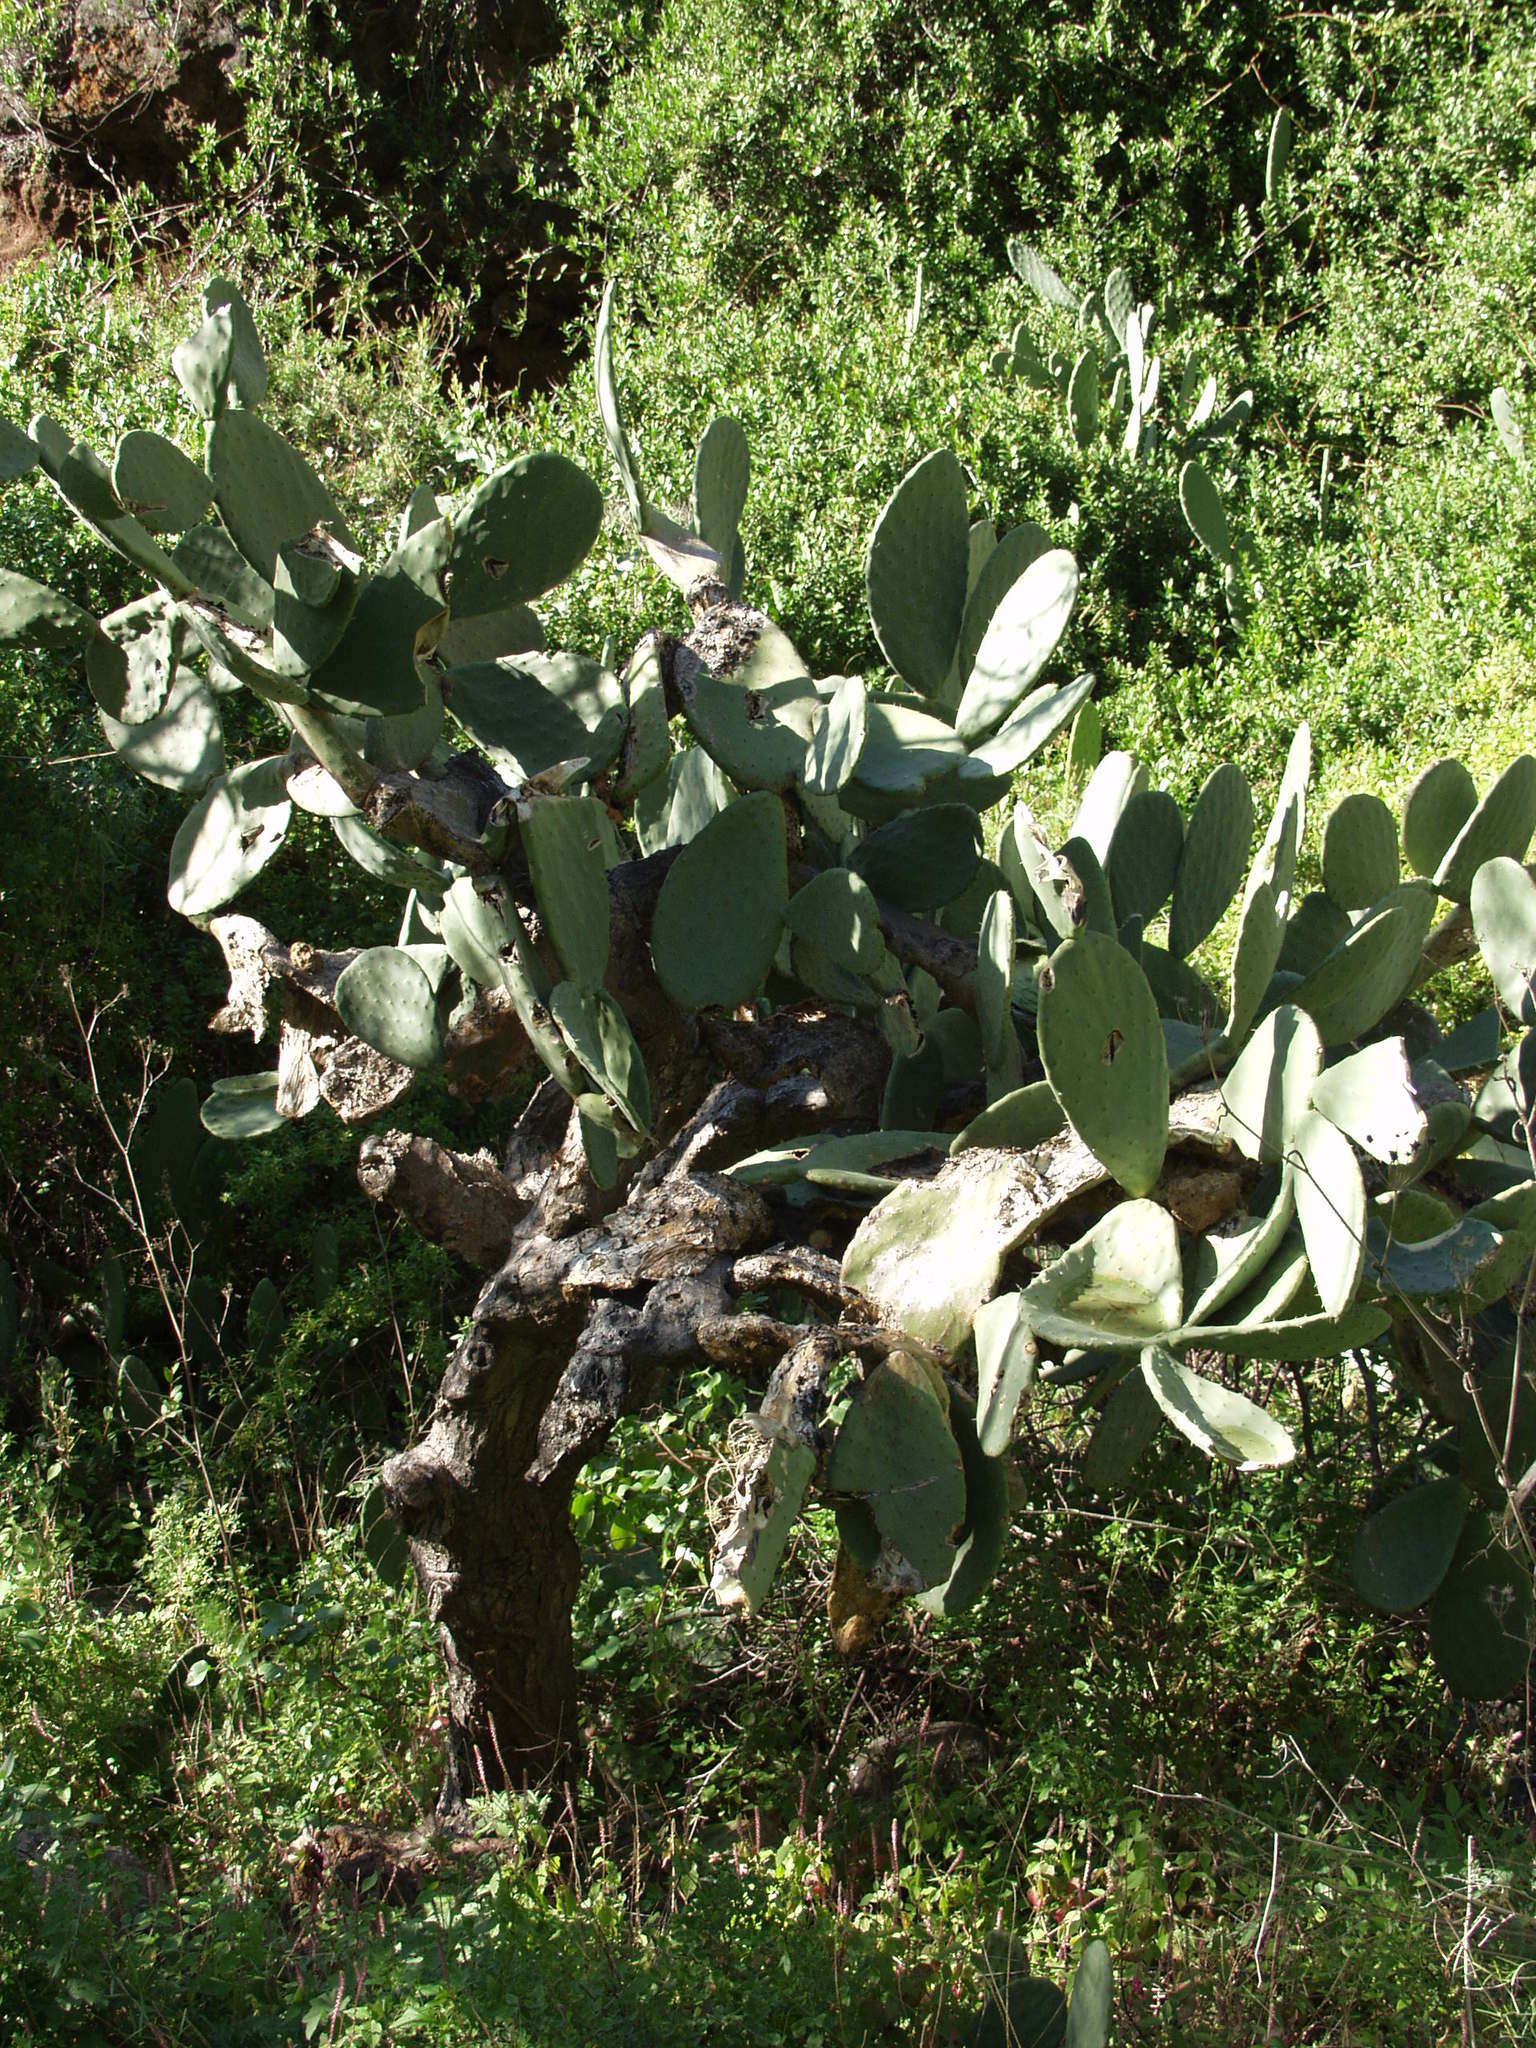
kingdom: Plantae
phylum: Tracheophyta
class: Magnoliopsida
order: Caryophyllales
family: Cactaceae
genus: Opuntia
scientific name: Opuntia tomentosa
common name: Woollyjoint pricklypear
